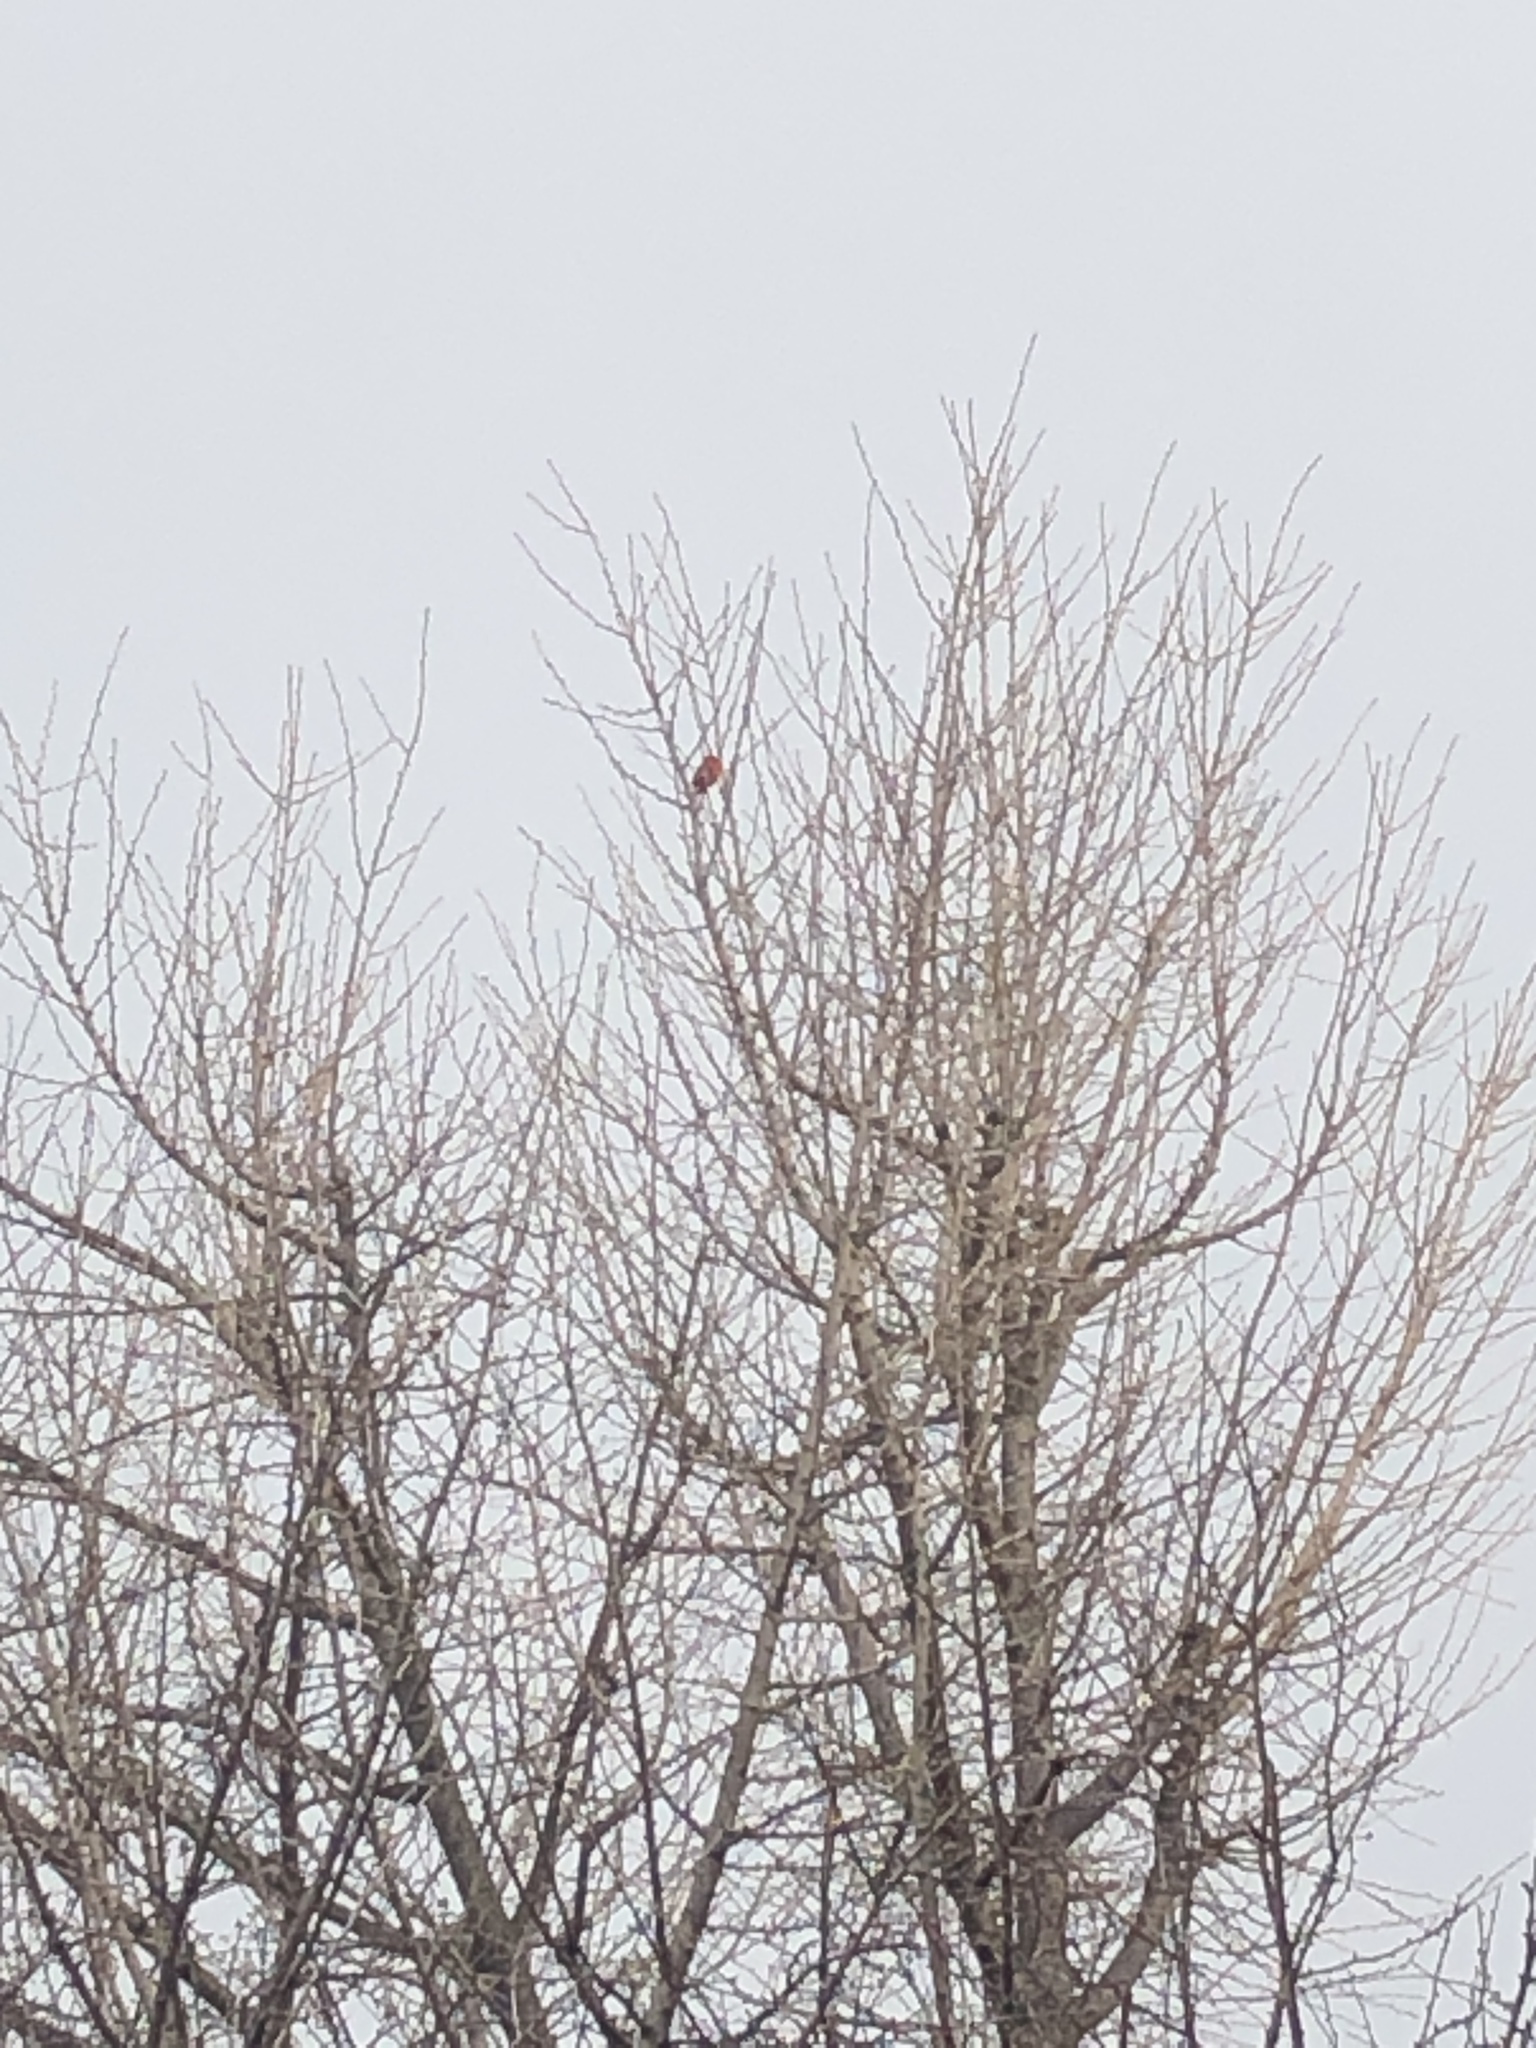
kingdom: Animalia
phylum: Chordata
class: Aves
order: Passeriformes
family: Cardinalidae
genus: Cardinalis
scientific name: Cardinalis cardinalis
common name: Northern cardinal
